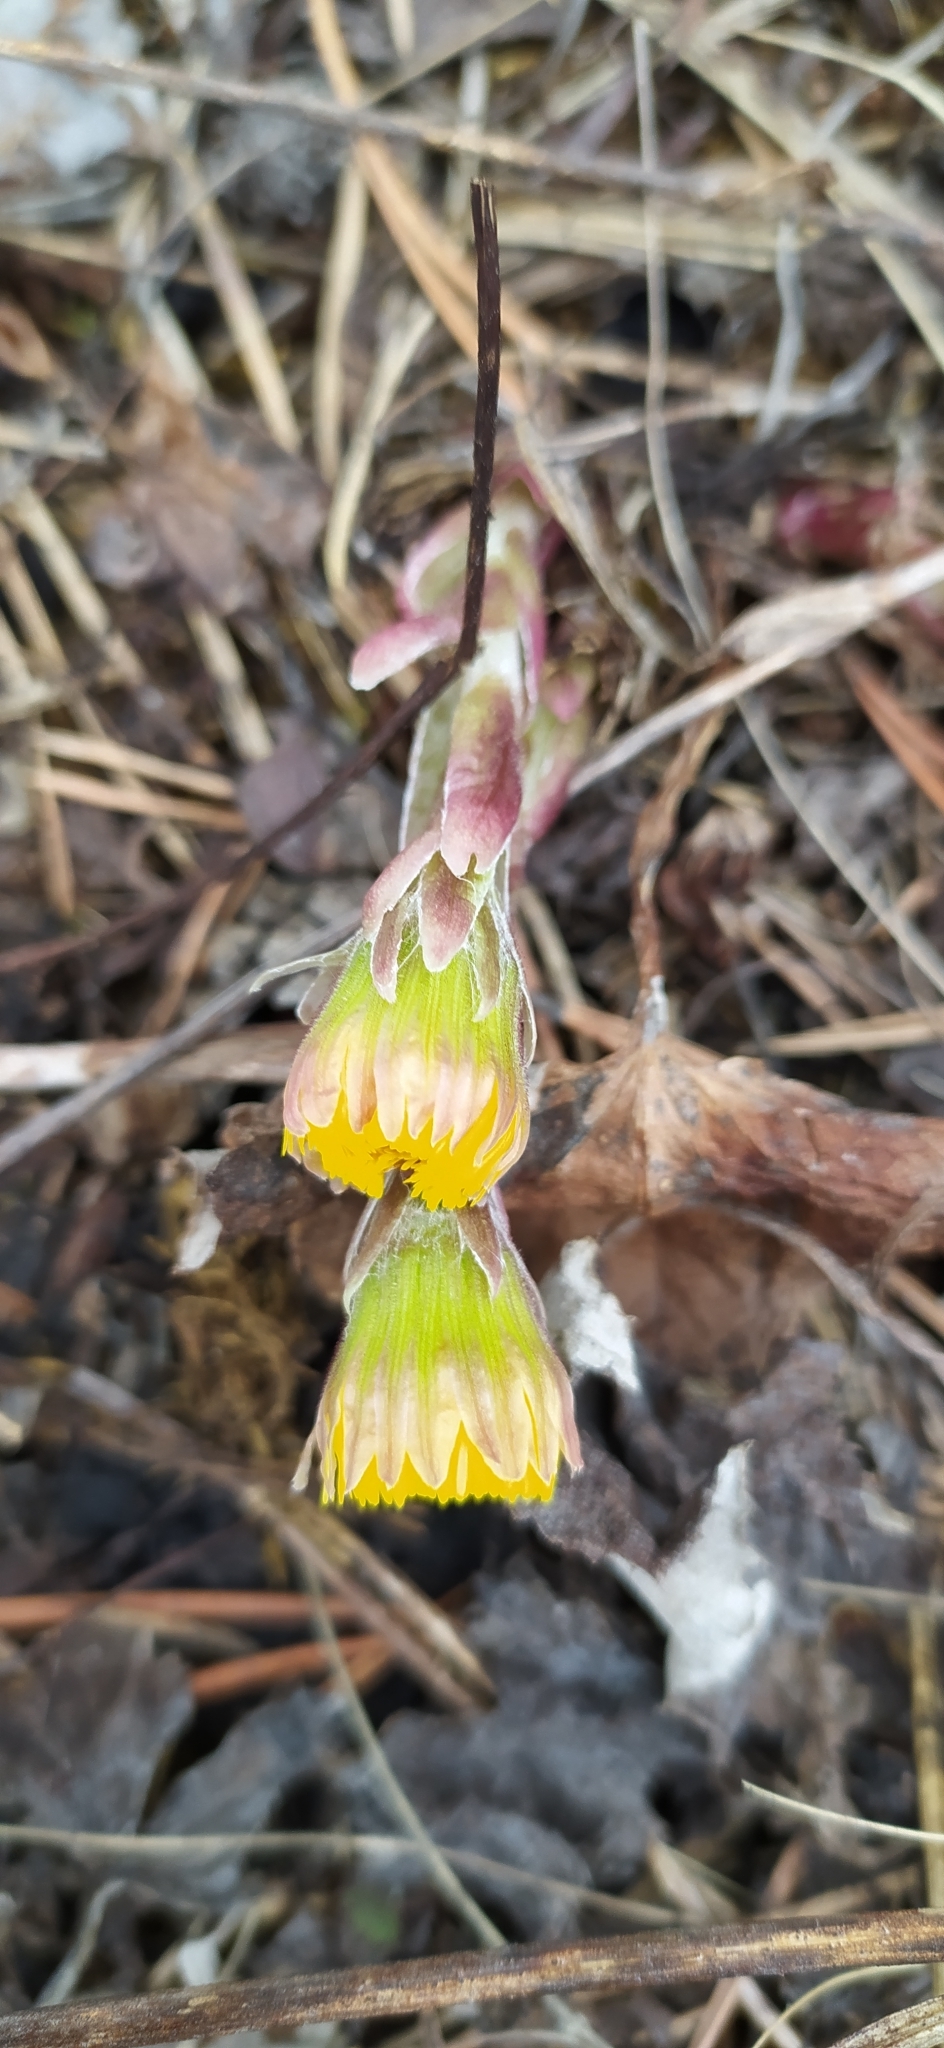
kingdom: Plantae
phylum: Tracheophyta
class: Magnoliopsida
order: Asterales
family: Asteraceae
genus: Tussilago
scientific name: Tussilago farfara
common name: Coltsfoot
